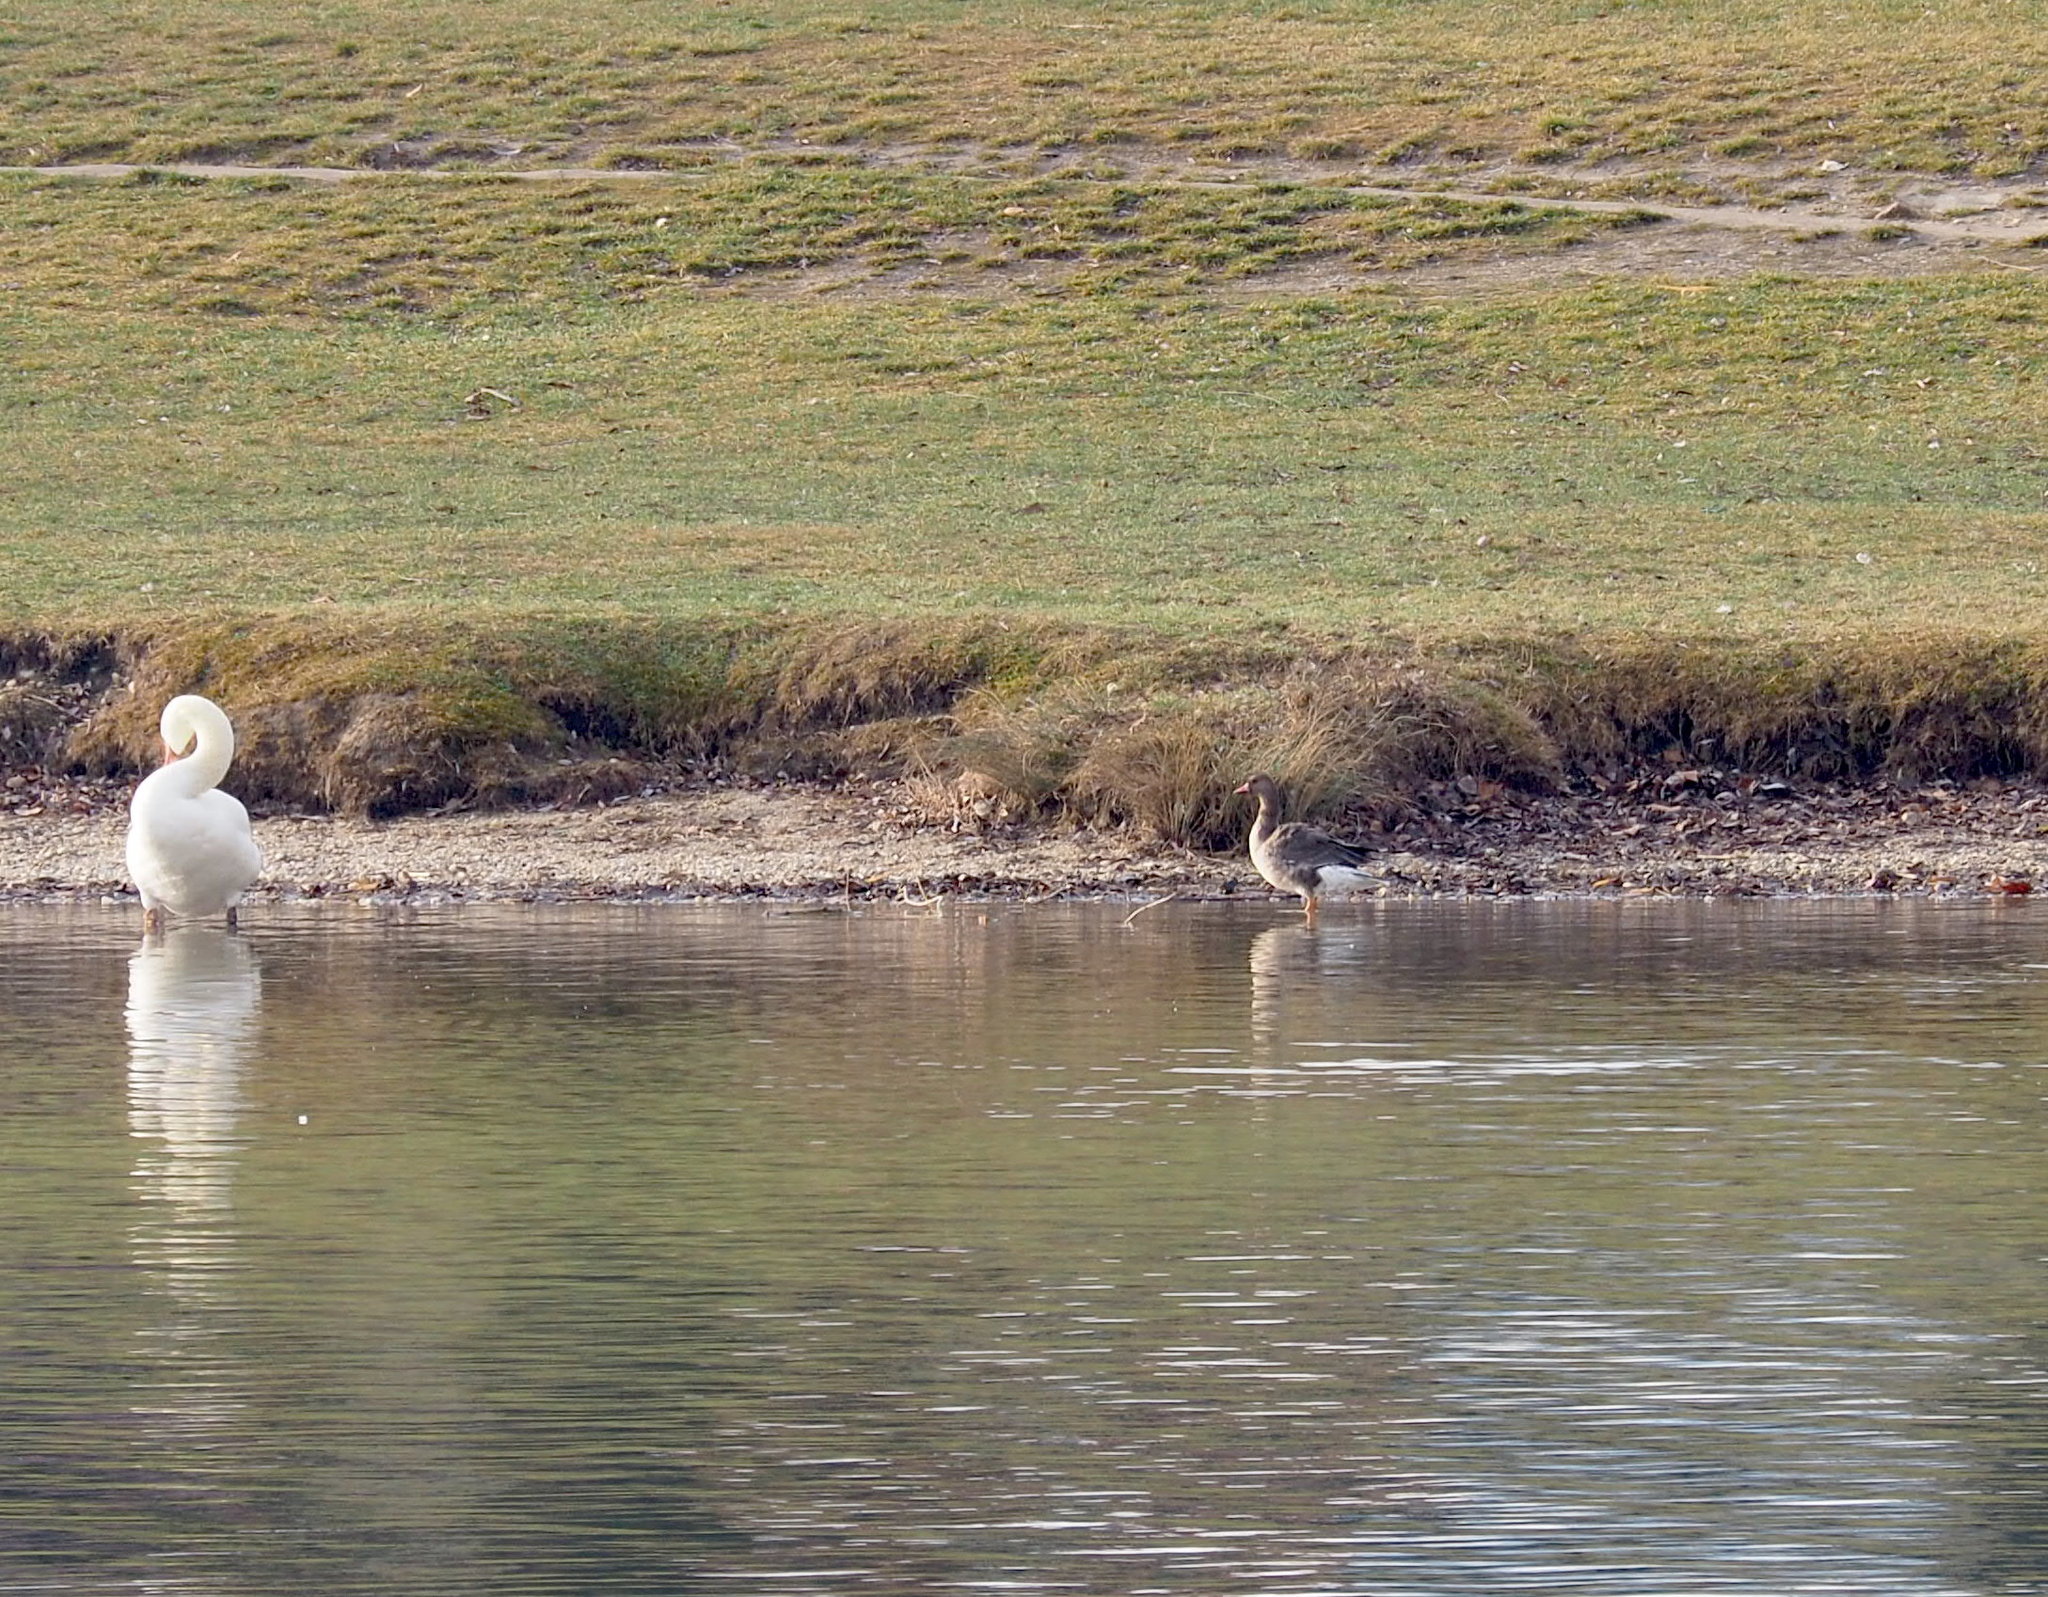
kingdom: Animalia
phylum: Chordata
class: Aves
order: Anseriformes
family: Anatidae
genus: Anser
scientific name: Anser albifrons
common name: Greater white-fronted goose
